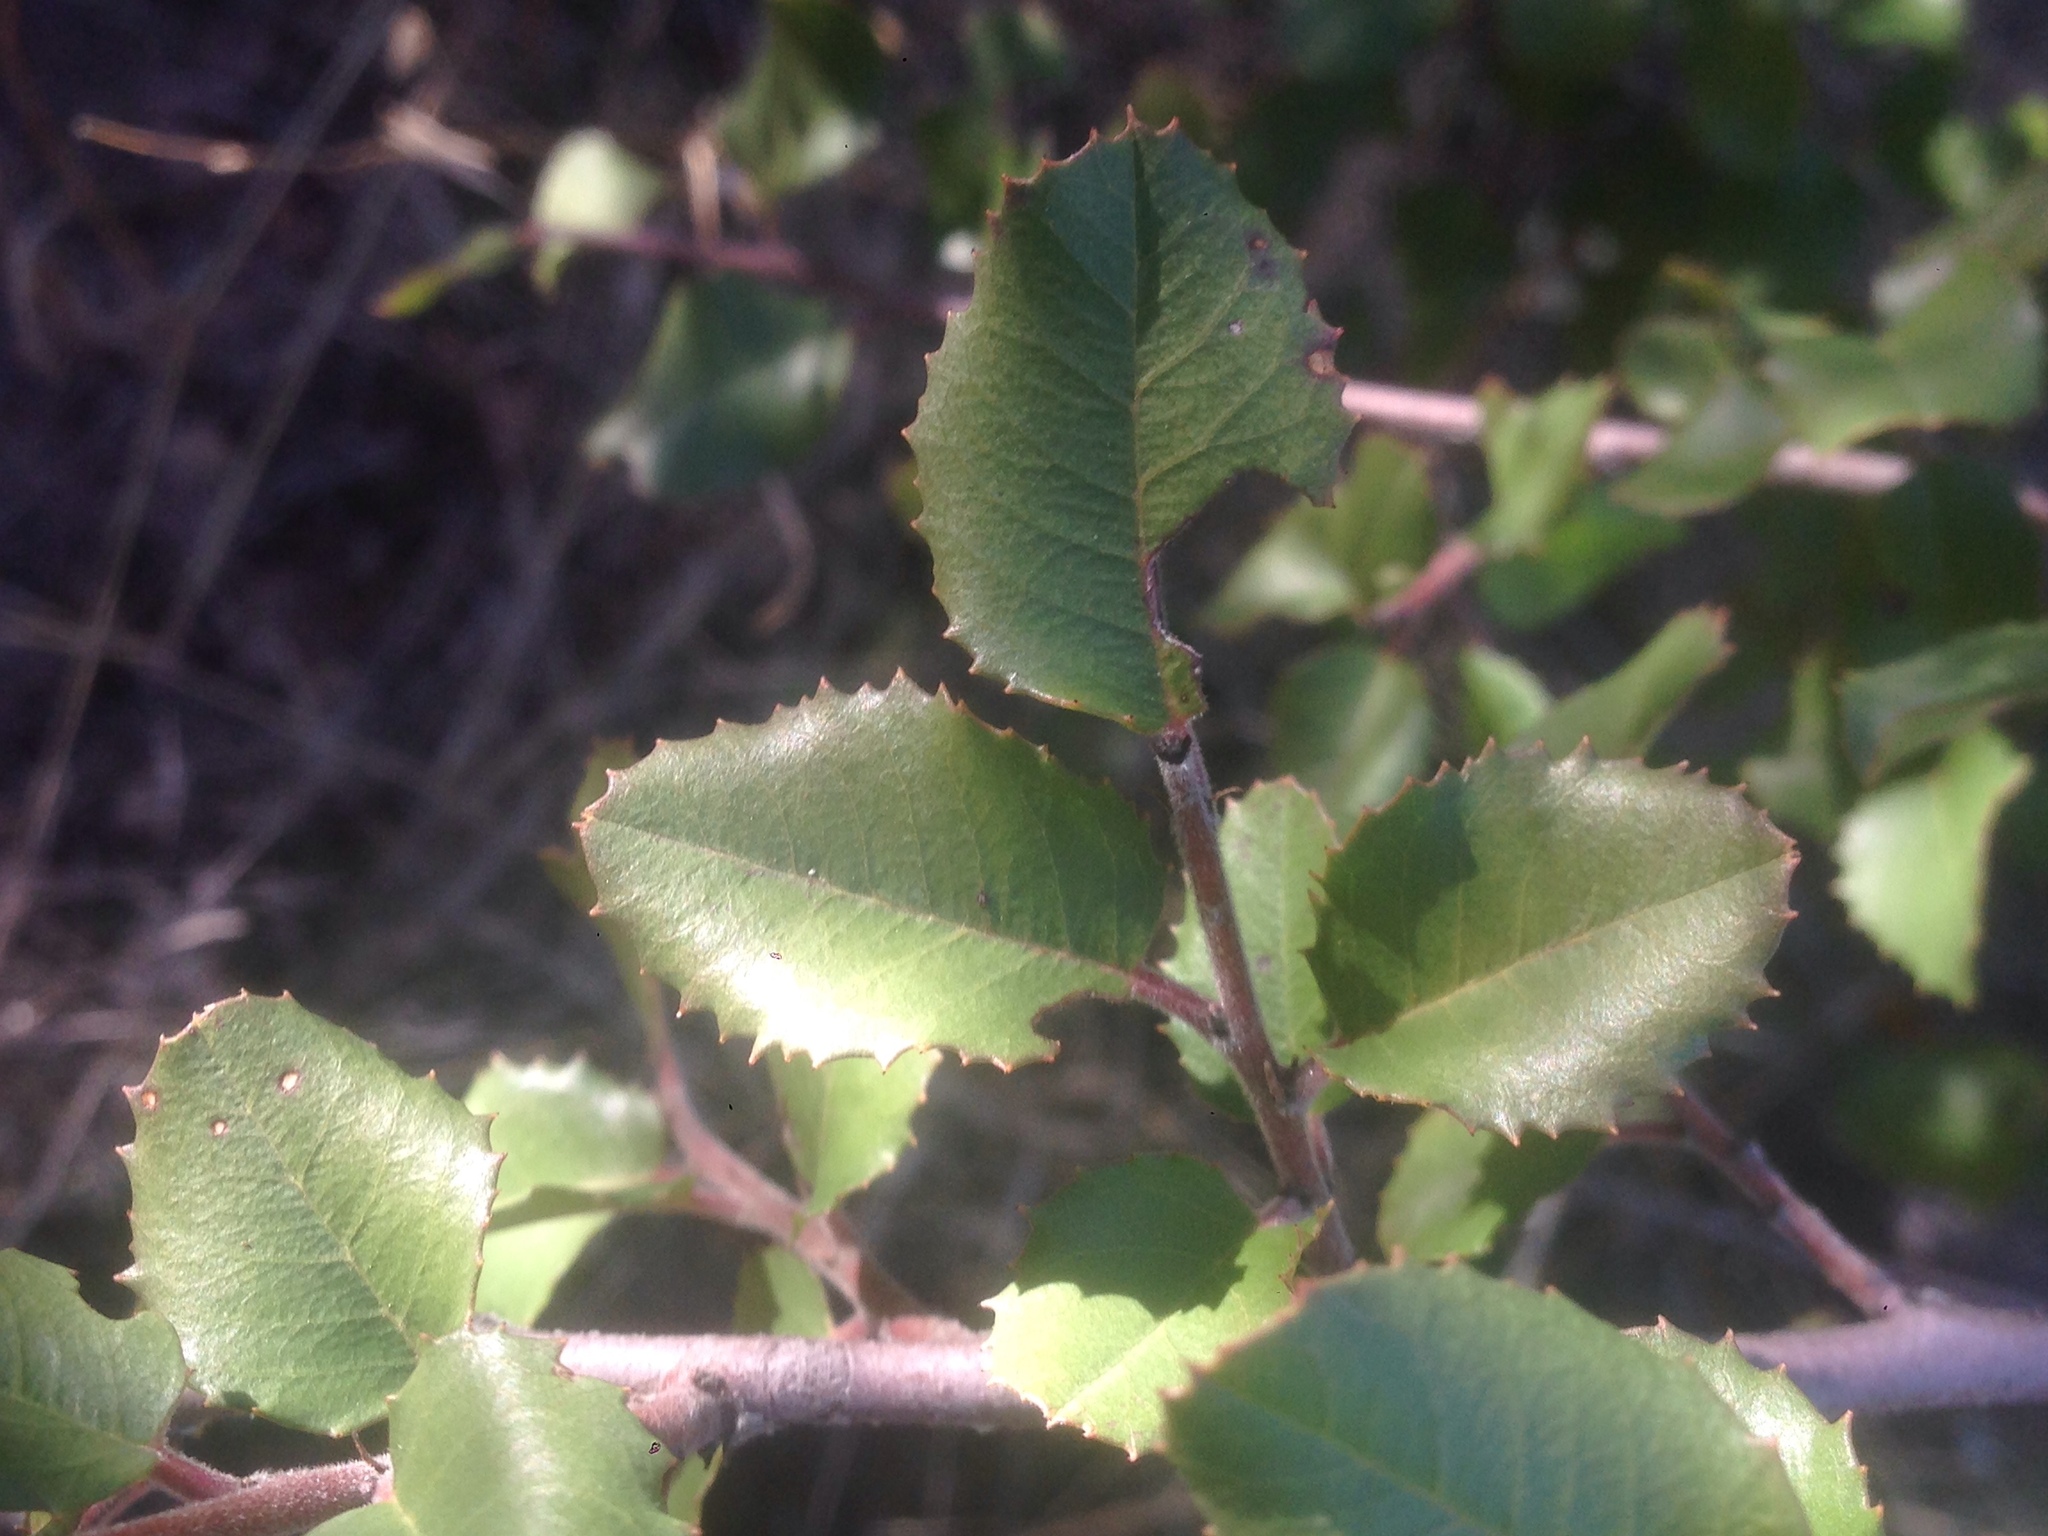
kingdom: Plantae
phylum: Tracheophyta
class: Magnoliopsida
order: Rosales
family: Rhamnaceae
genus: Endotropis
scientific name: Endotropis crocea
